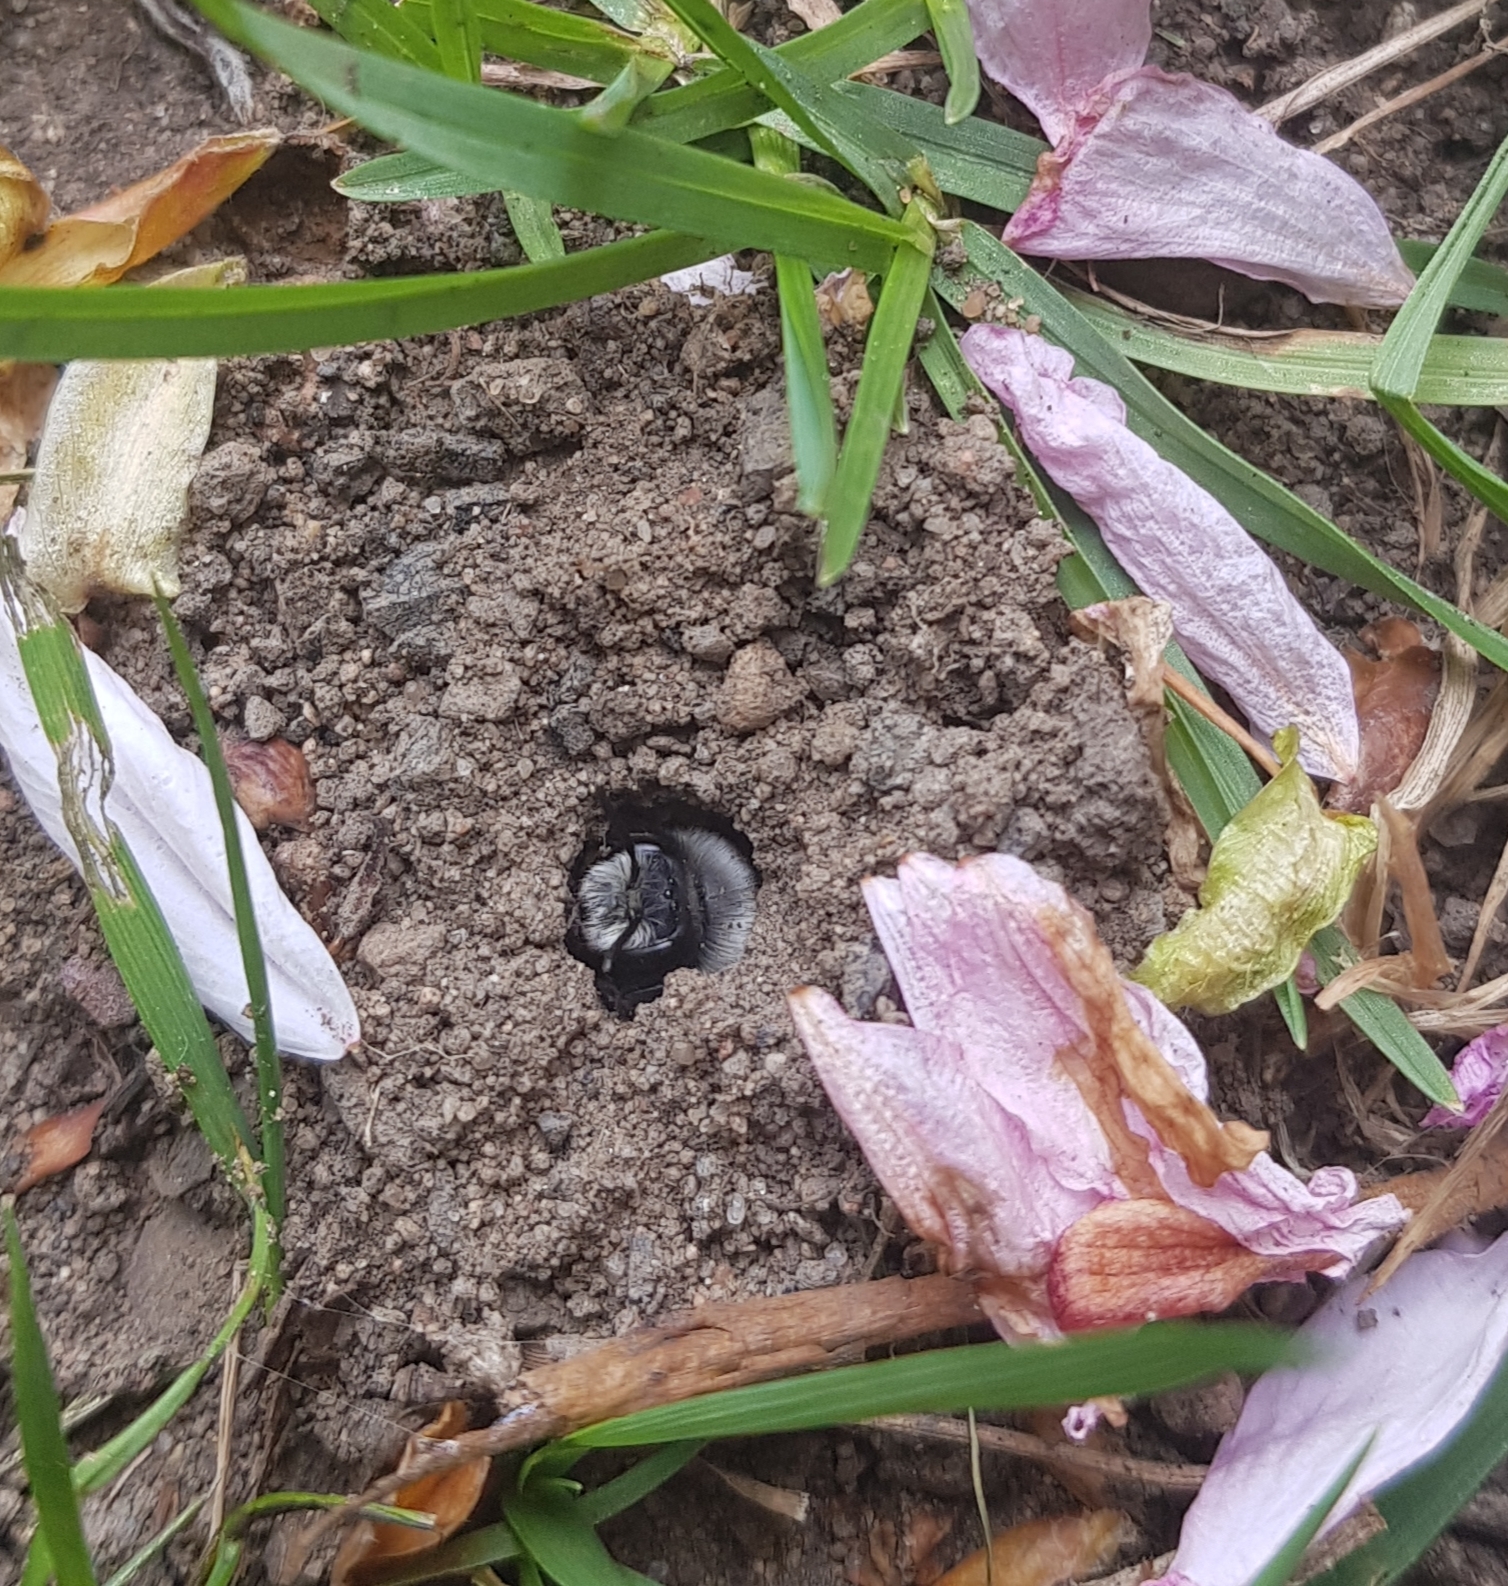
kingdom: Animalia
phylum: Arthropoda
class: Insecta
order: Hymenoptera
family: Andrenidae
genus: Andrena
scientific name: Andrena cineraria
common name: Ashy mining bee
